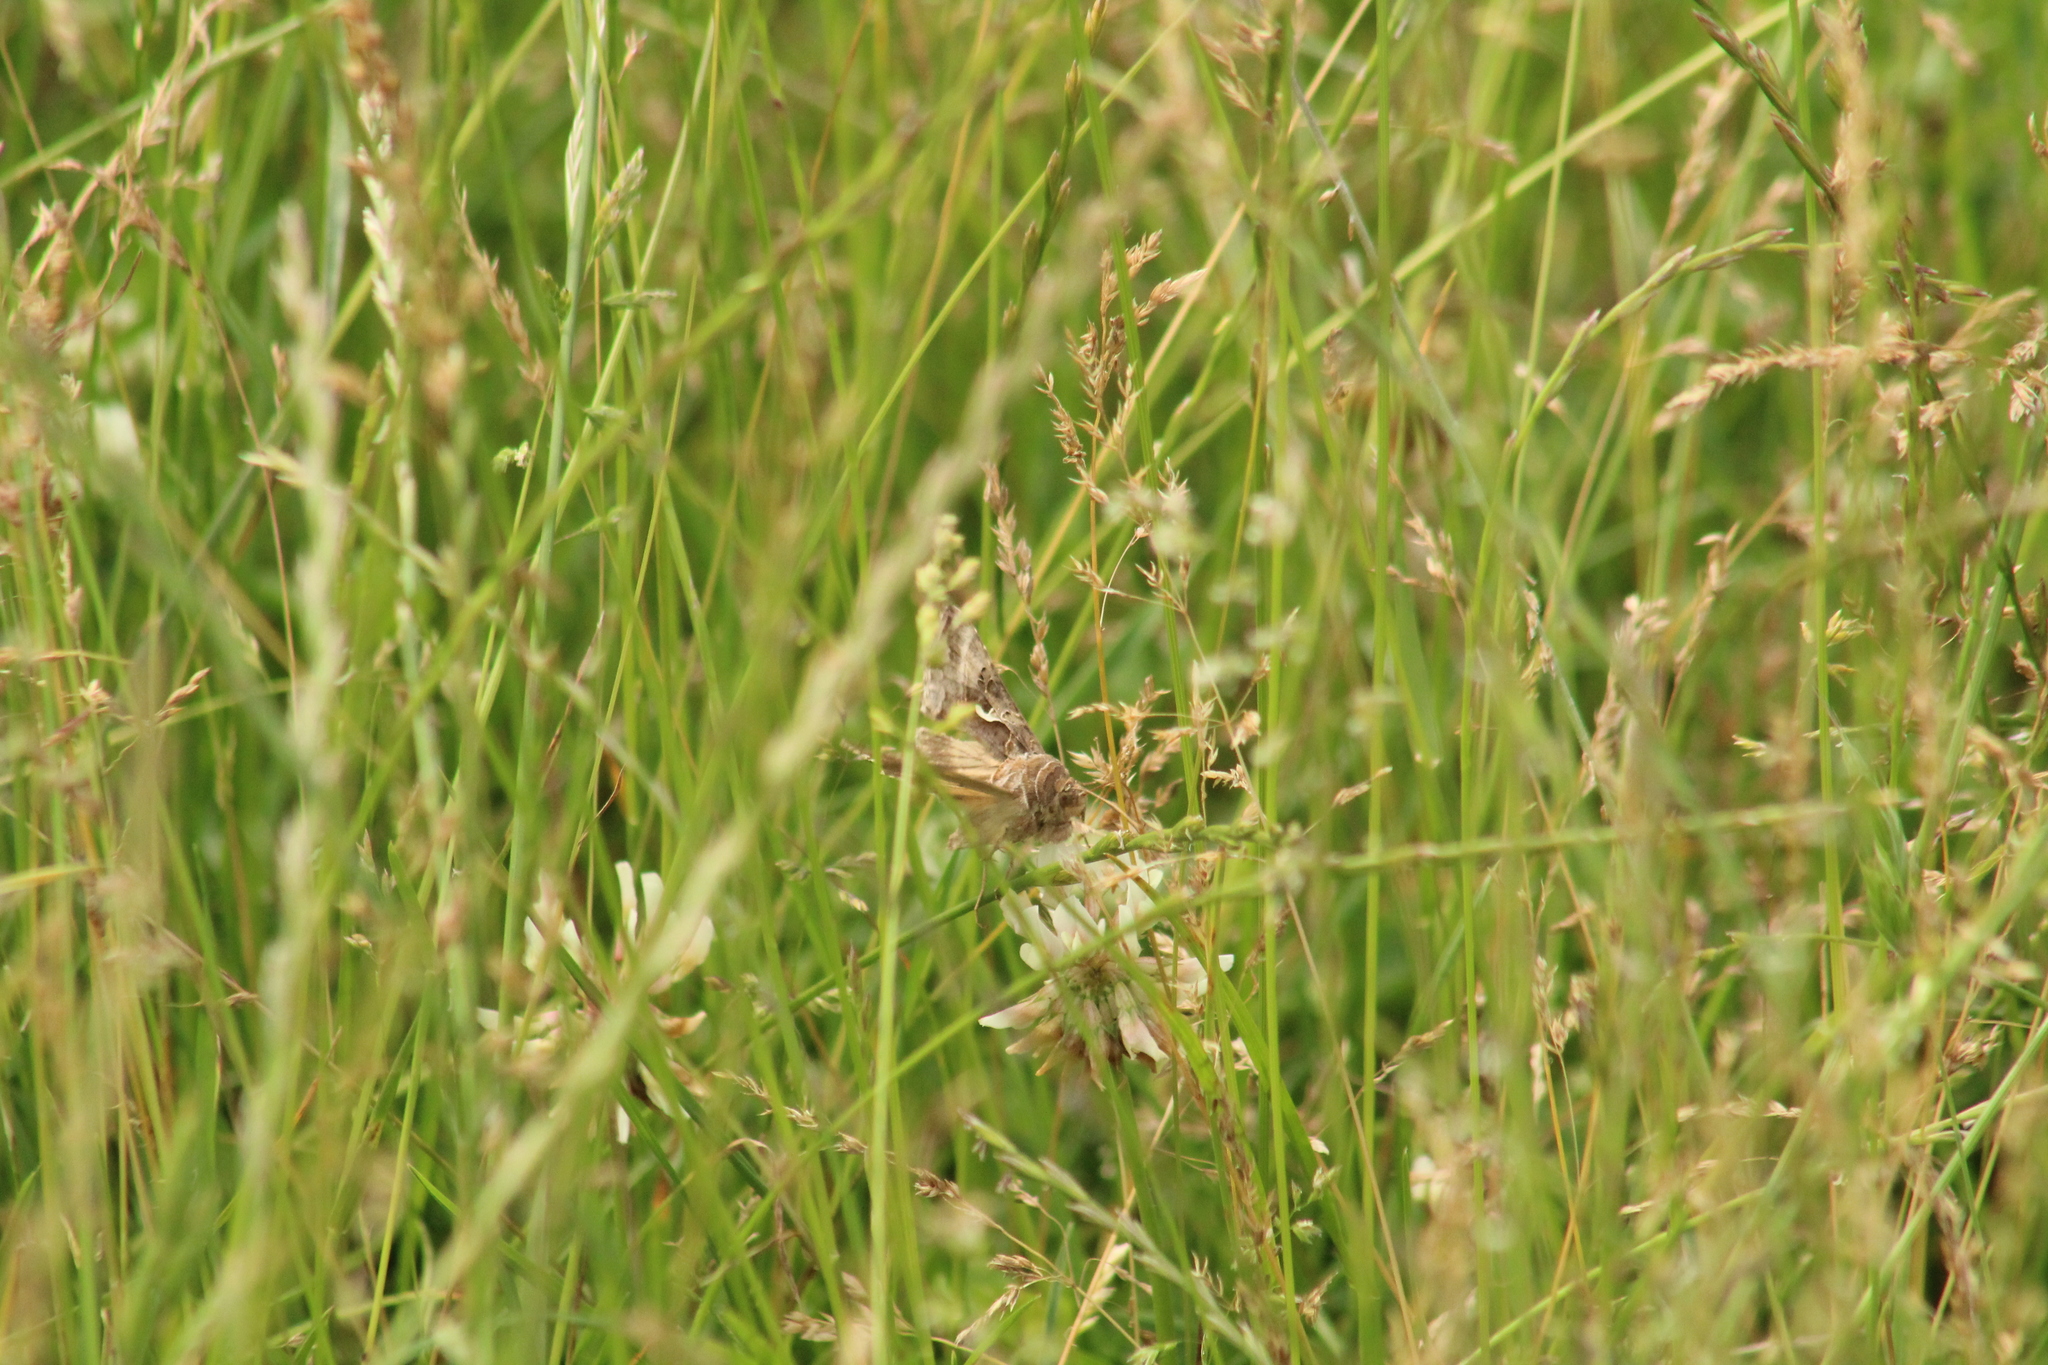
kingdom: Animalia
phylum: Arthropoda
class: Insecta
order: Lepidoptera
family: Noctuidae
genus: Autographa
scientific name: Autographa gamma
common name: Silver y
